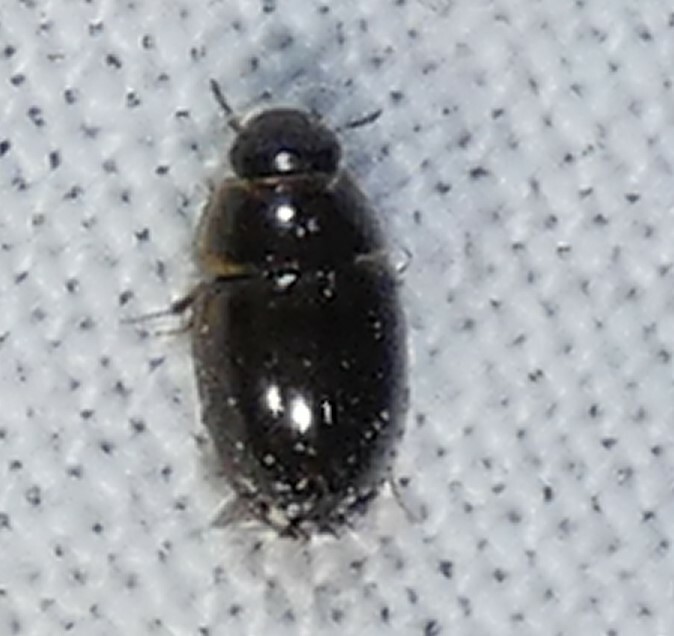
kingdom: Animalia
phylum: Arthropoda
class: Insecta
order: Coleoptera
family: Hydrophilidae
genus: Enochrus
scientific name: Enochrus
